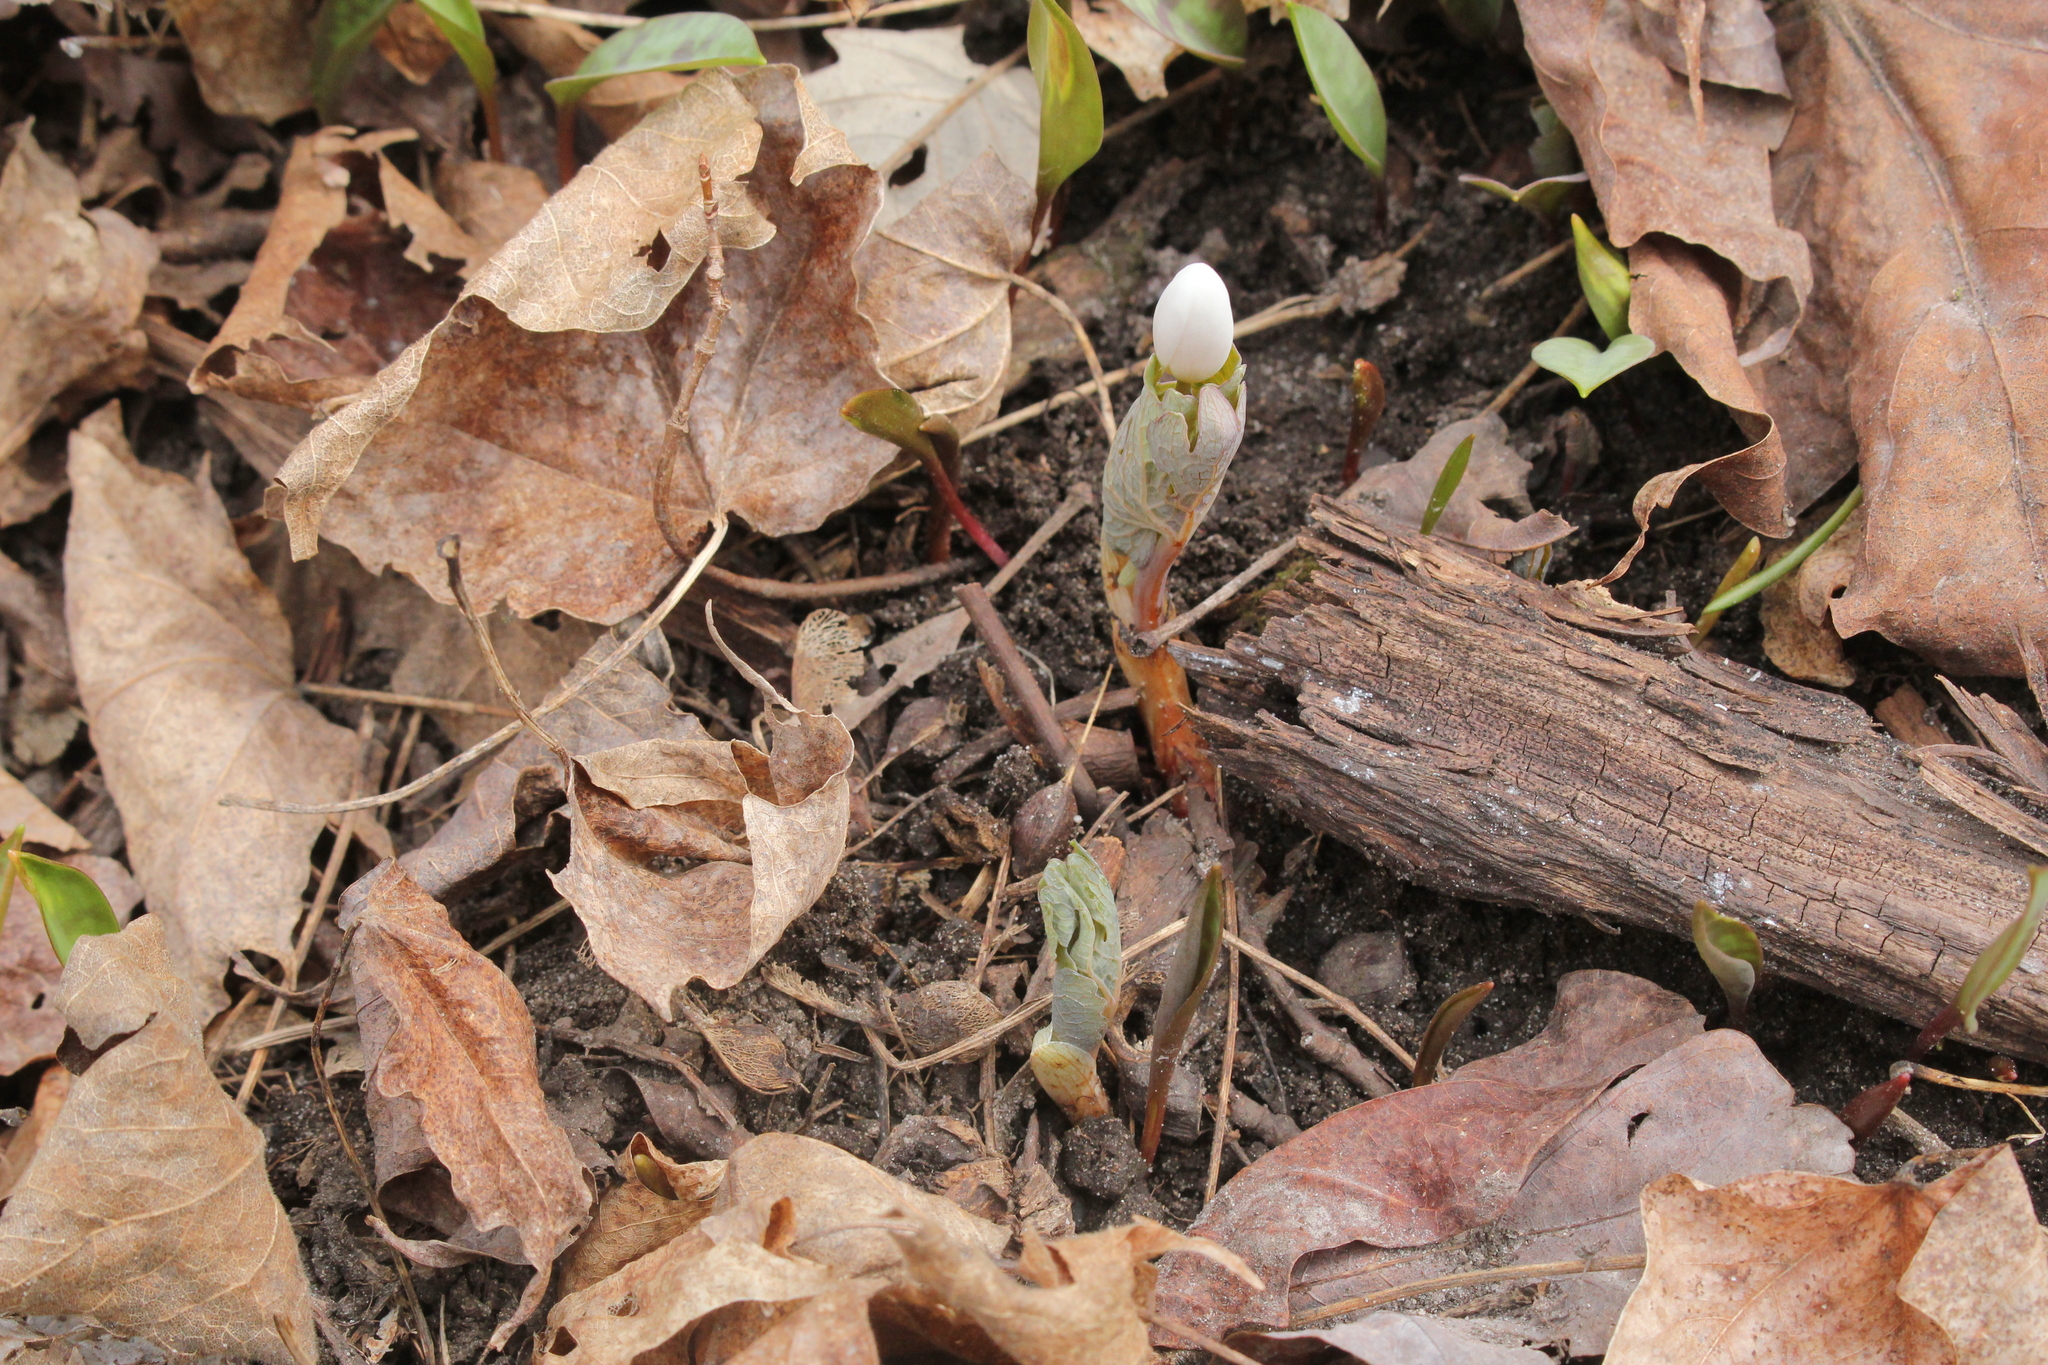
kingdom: Plantae
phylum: Tracheophyta
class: Magnoliopsida
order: Ranunculales
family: Papaveraceae
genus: Sanguinaria
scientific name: Sanguinaria canadensis
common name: Bloodroot
